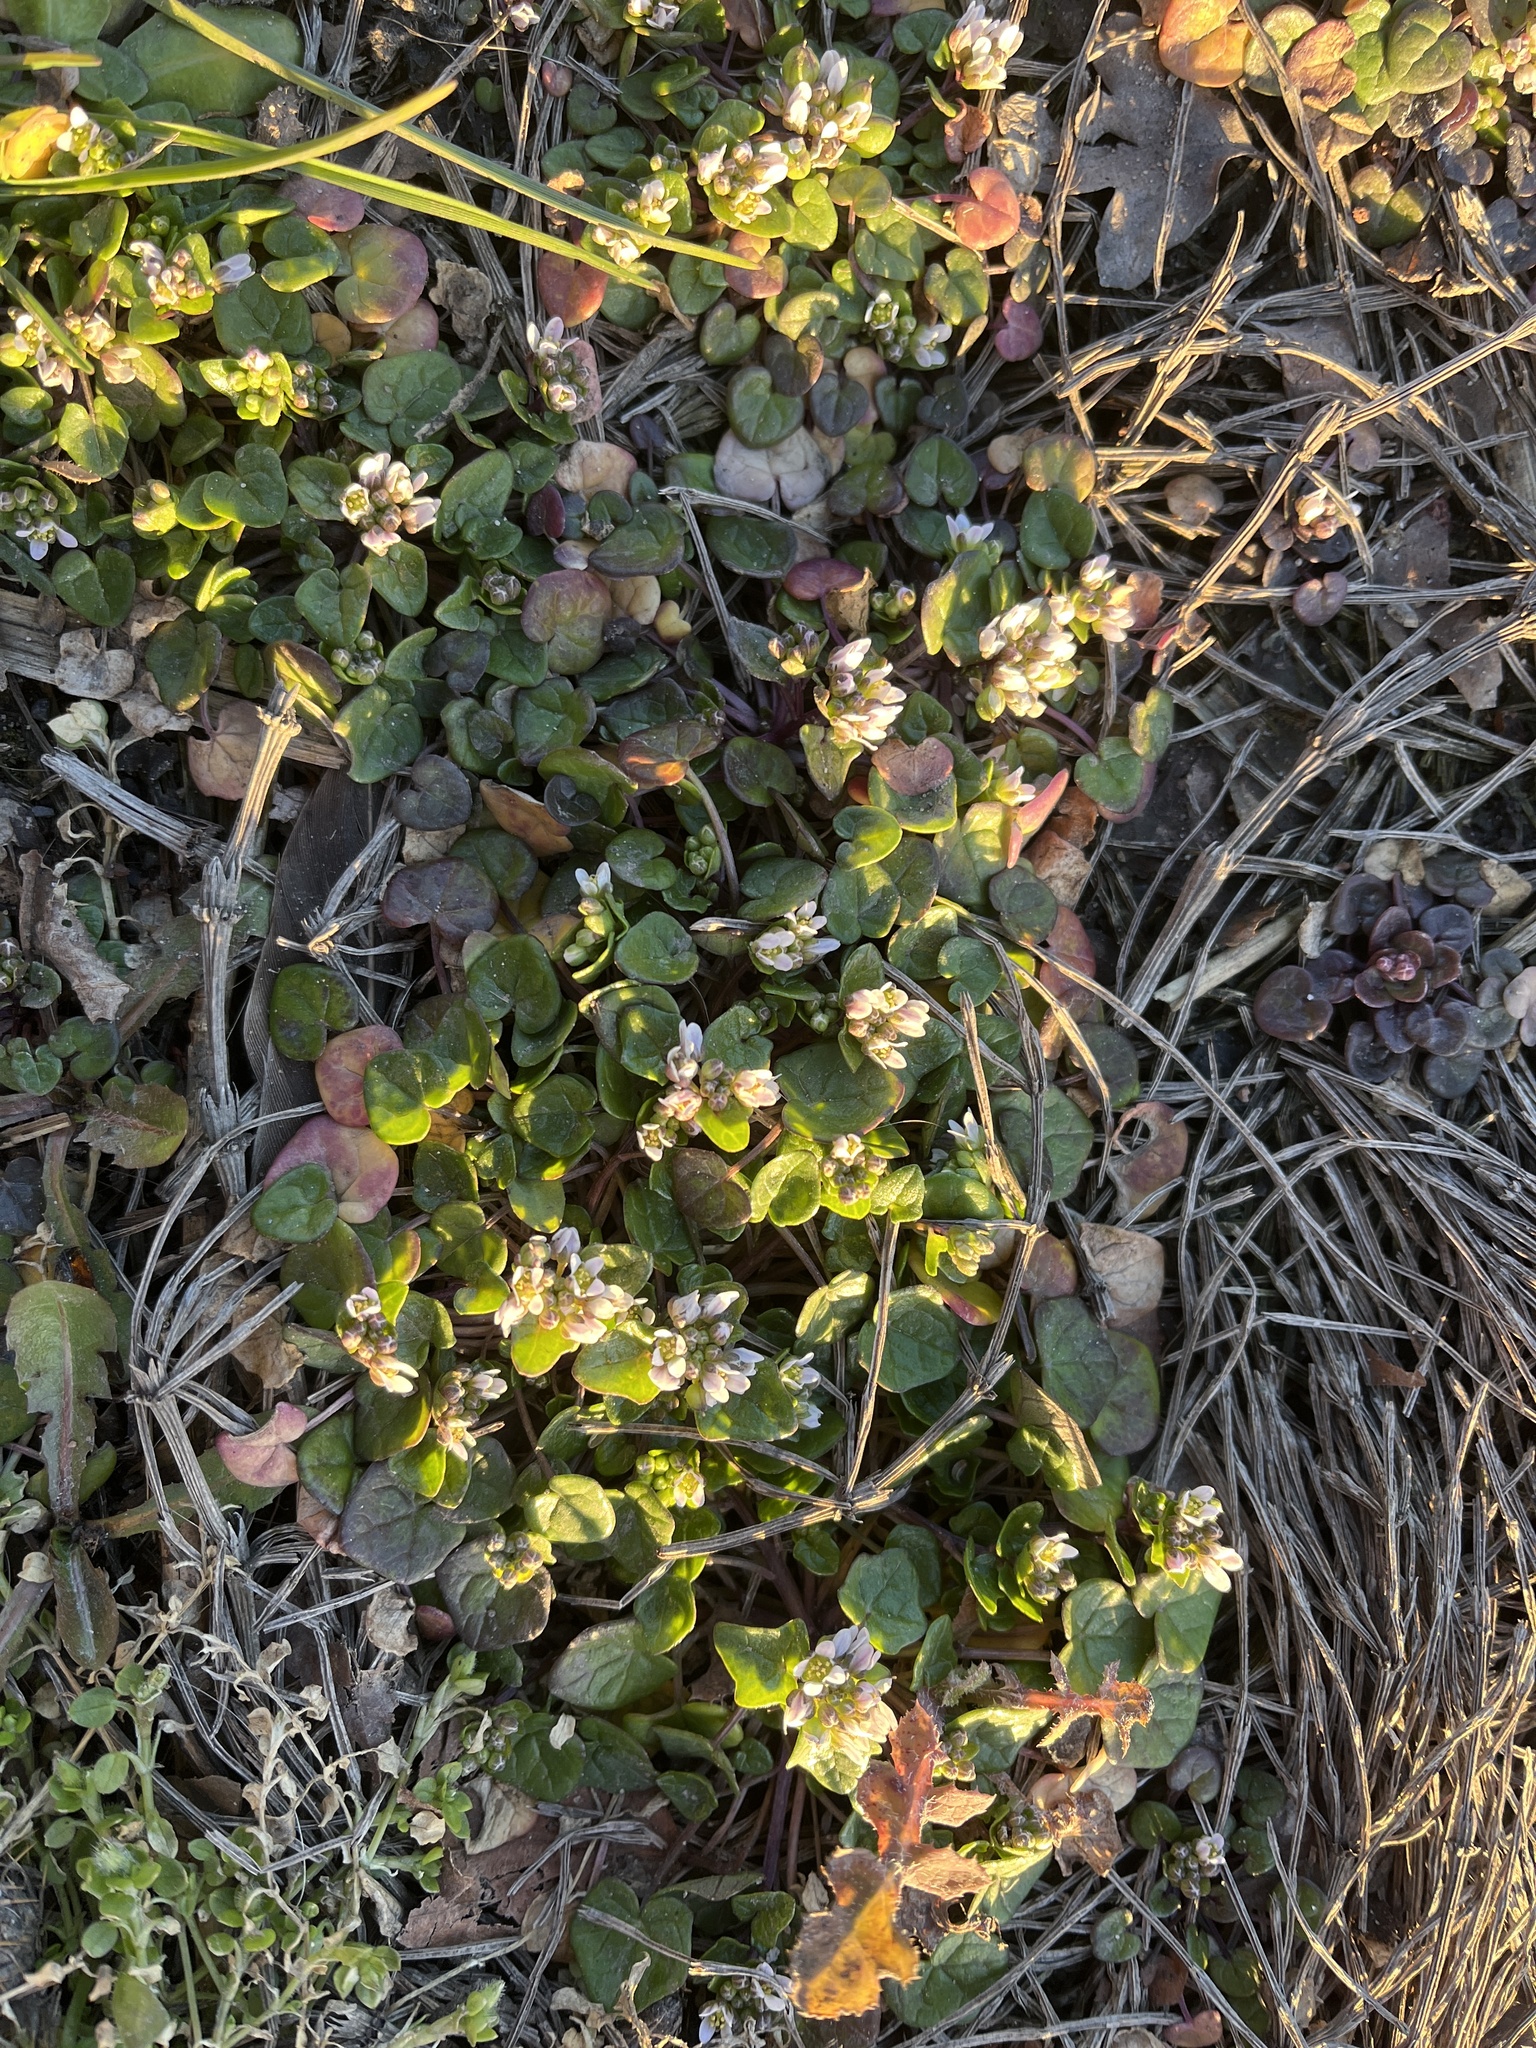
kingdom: Plantae
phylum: Tracheophyta
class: Magnoliopsida
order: Brassicales
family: Brassicaceae
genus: Cochlearia
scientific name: Cochlearia danica
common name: Early scurvygrass
